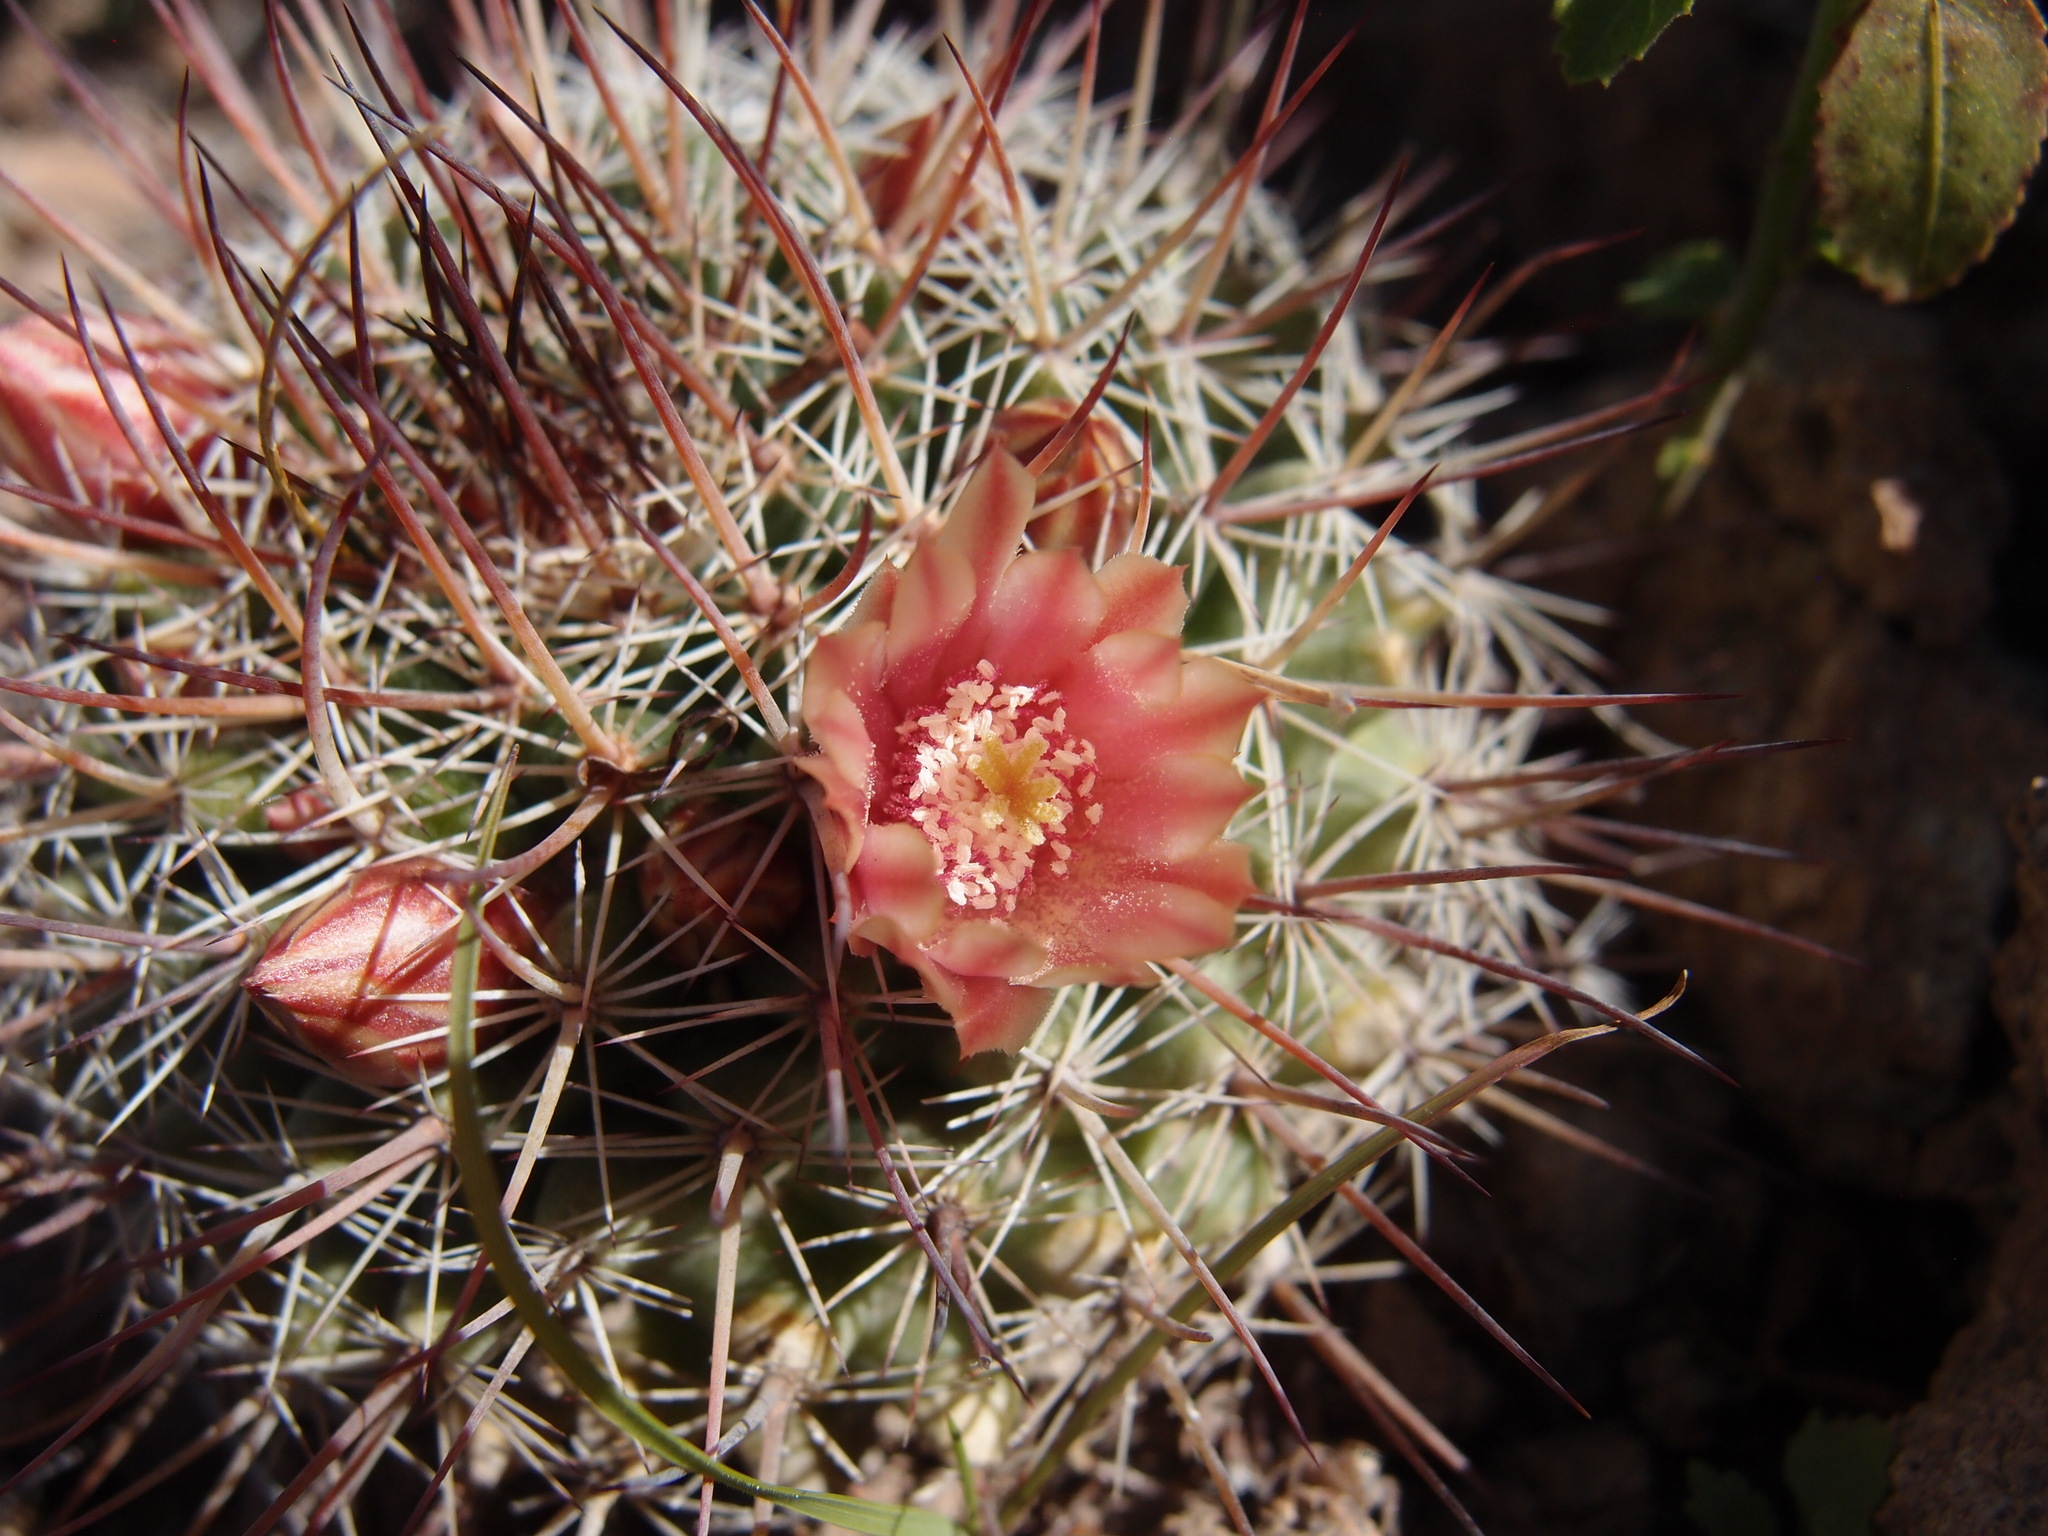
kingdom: Plantae
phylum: Tracheophyta
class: Magnoliopsida
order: Caryophyllales
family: Cactaceae
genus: Mammillaria
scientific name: Mammillaria johnstonii
